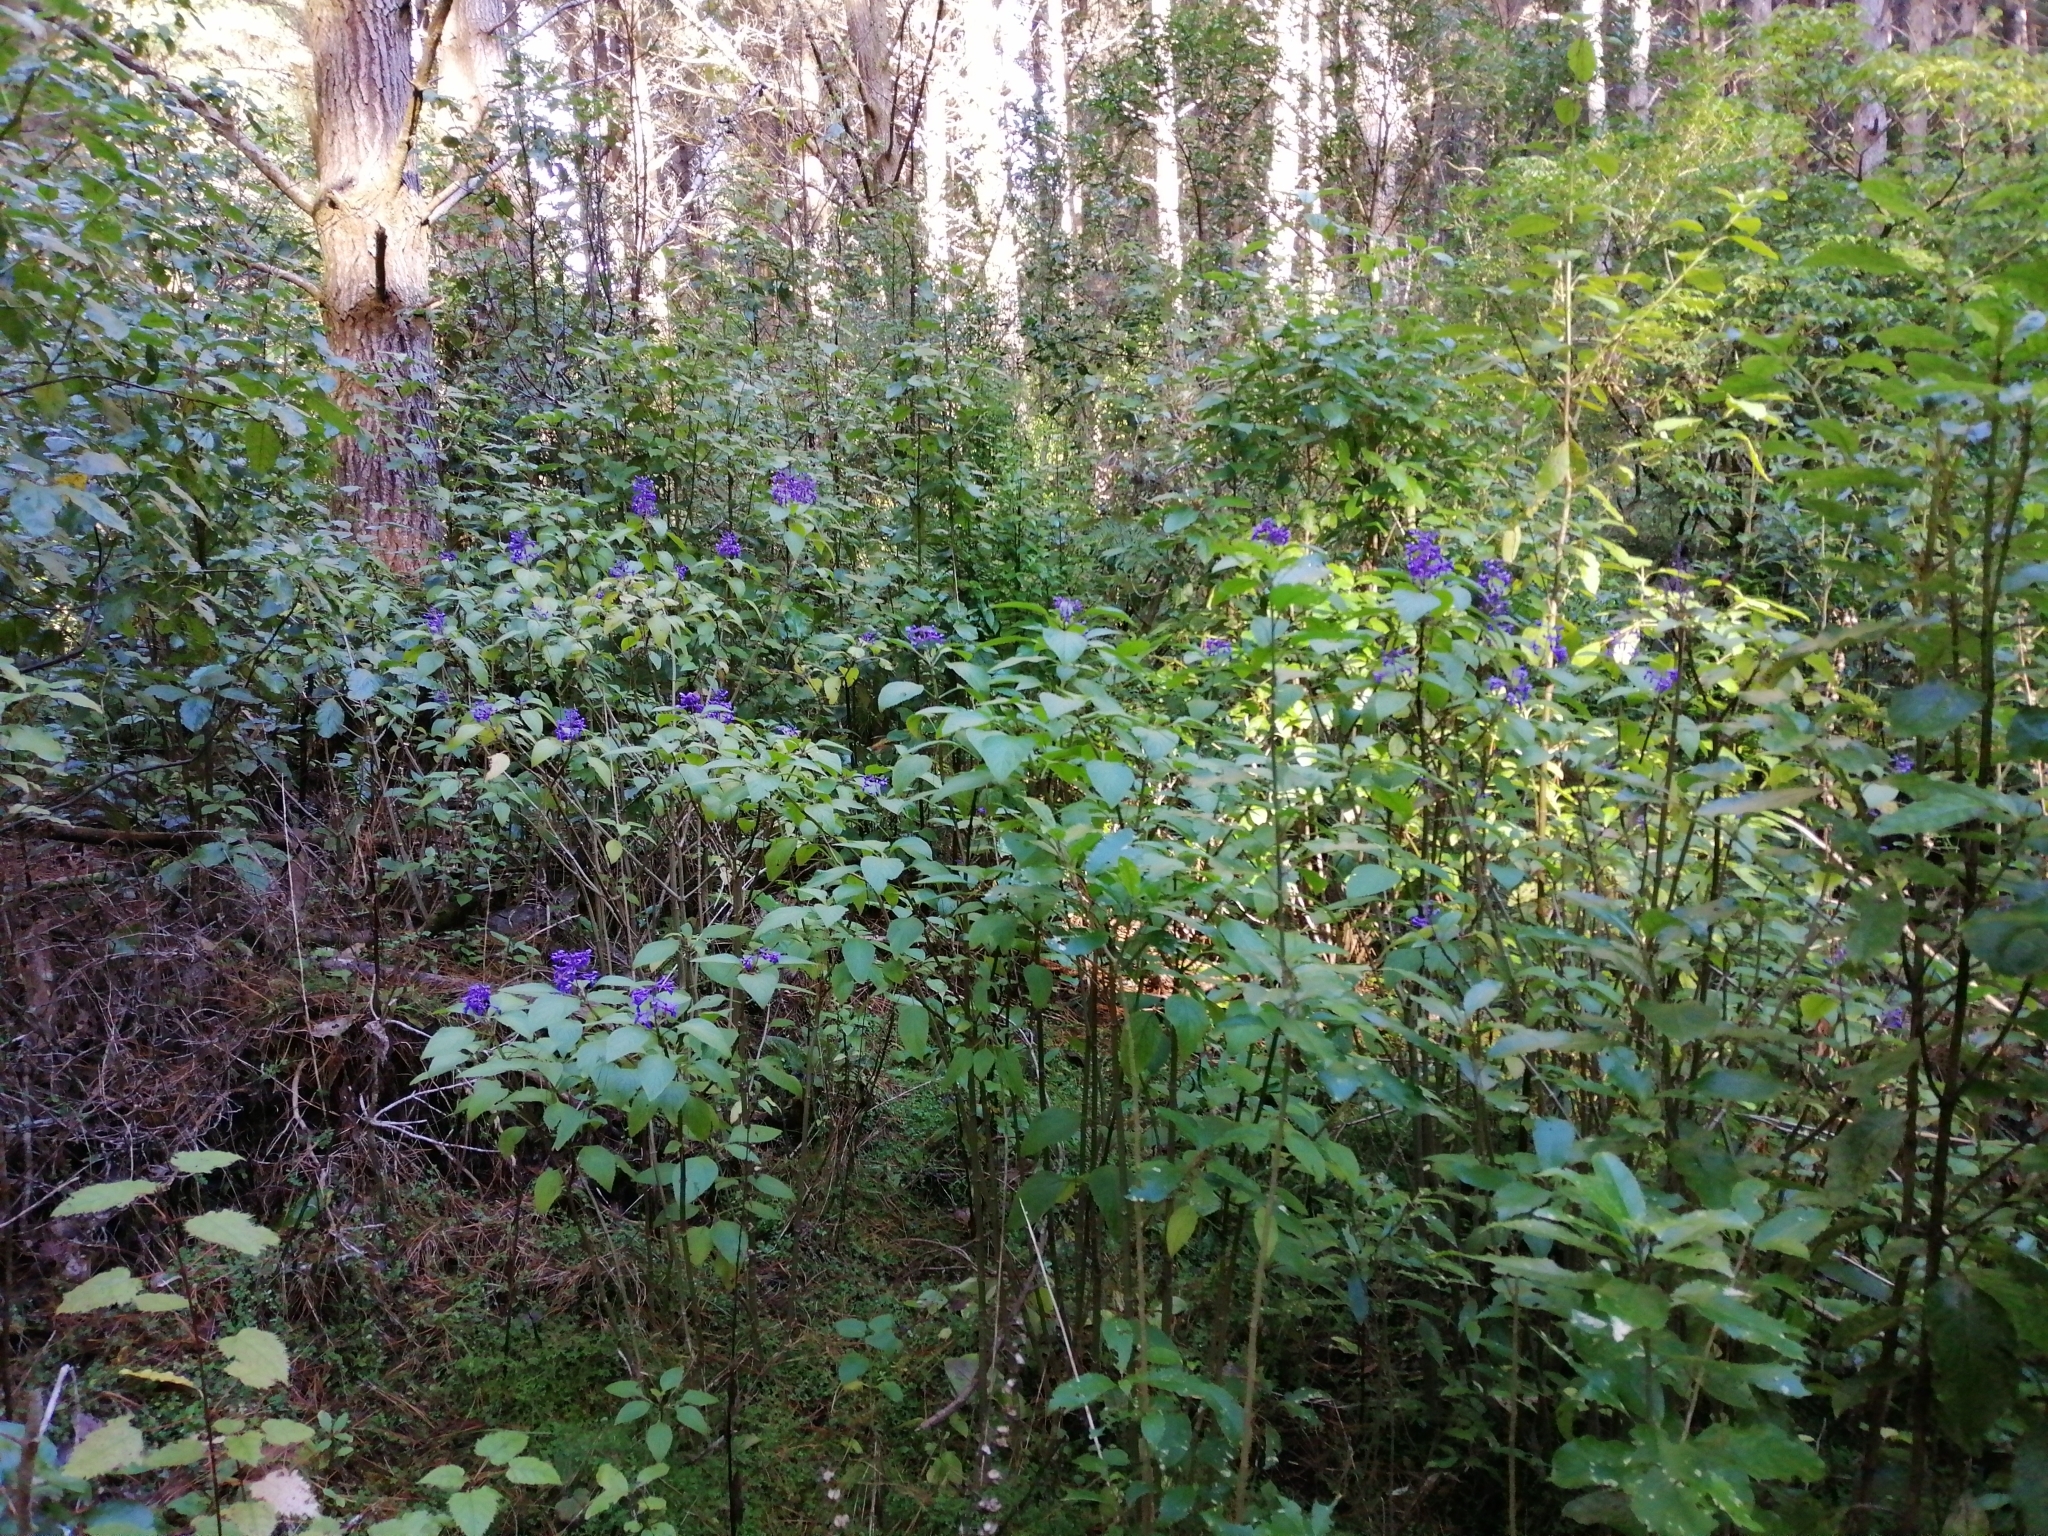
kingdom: Plantae
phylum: Tracheophyta
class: Magnoliopsida
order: Lamiales
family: Lamiaceae
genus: Plectranthus
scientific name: Plectranthus ecklonii
